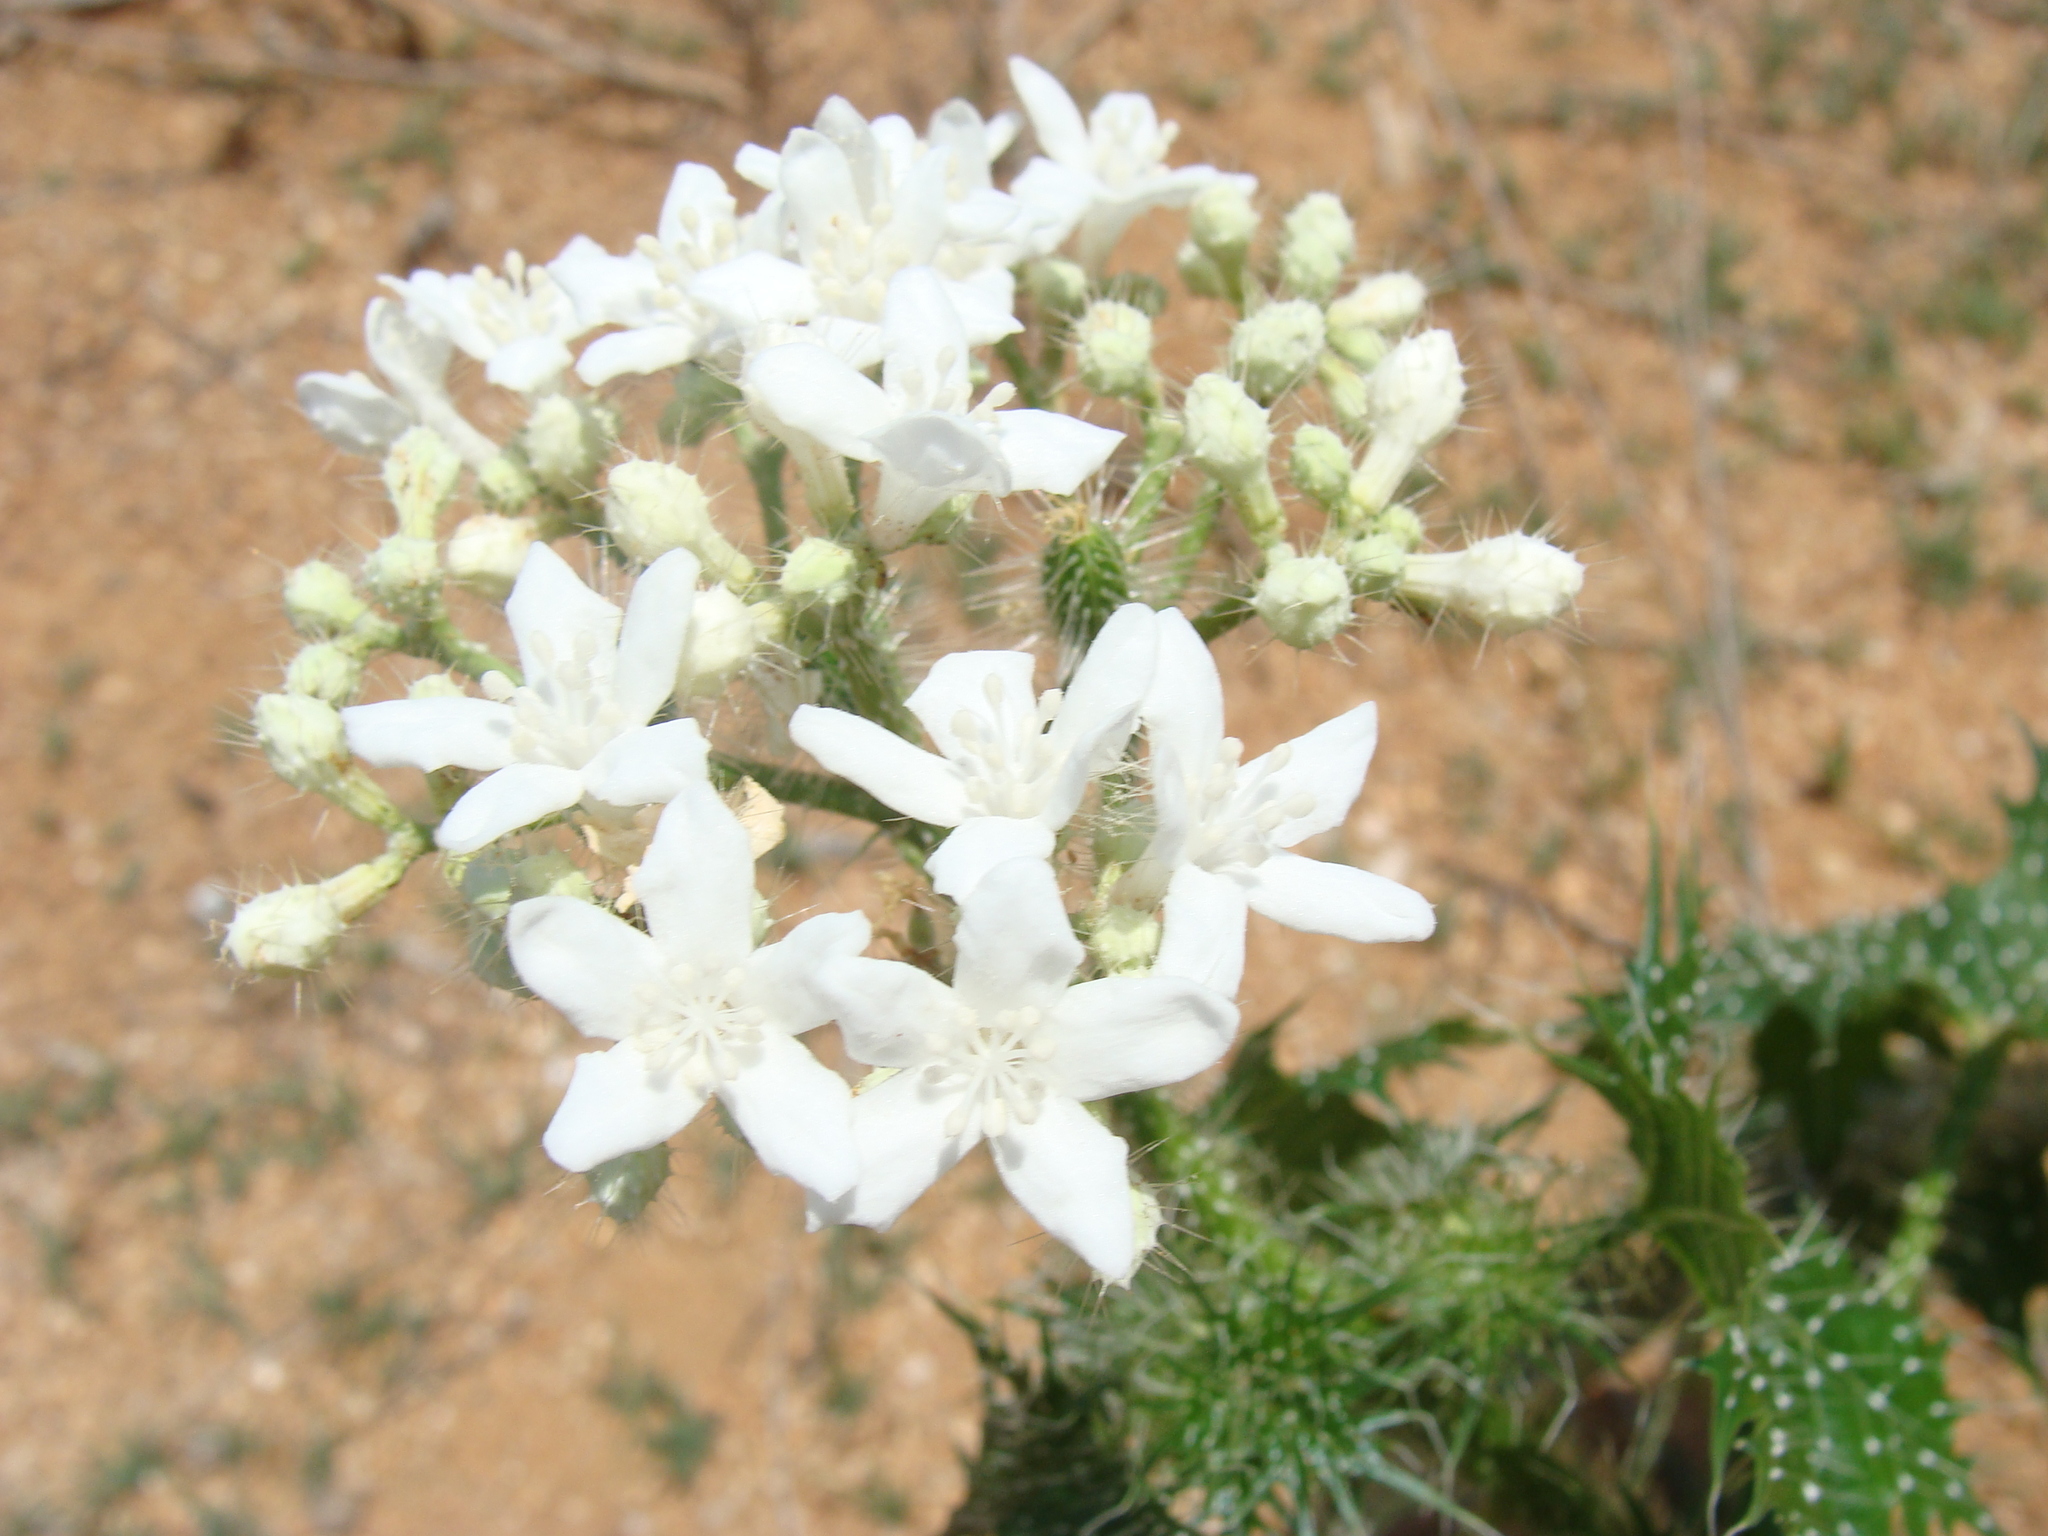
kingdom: Plantae
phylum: Tracheophyta
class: Magnoliopsida
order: Malpighiales
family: Euphorbiaceae
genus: Cnidoscolus
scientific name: Cnidoscolus maculatus
